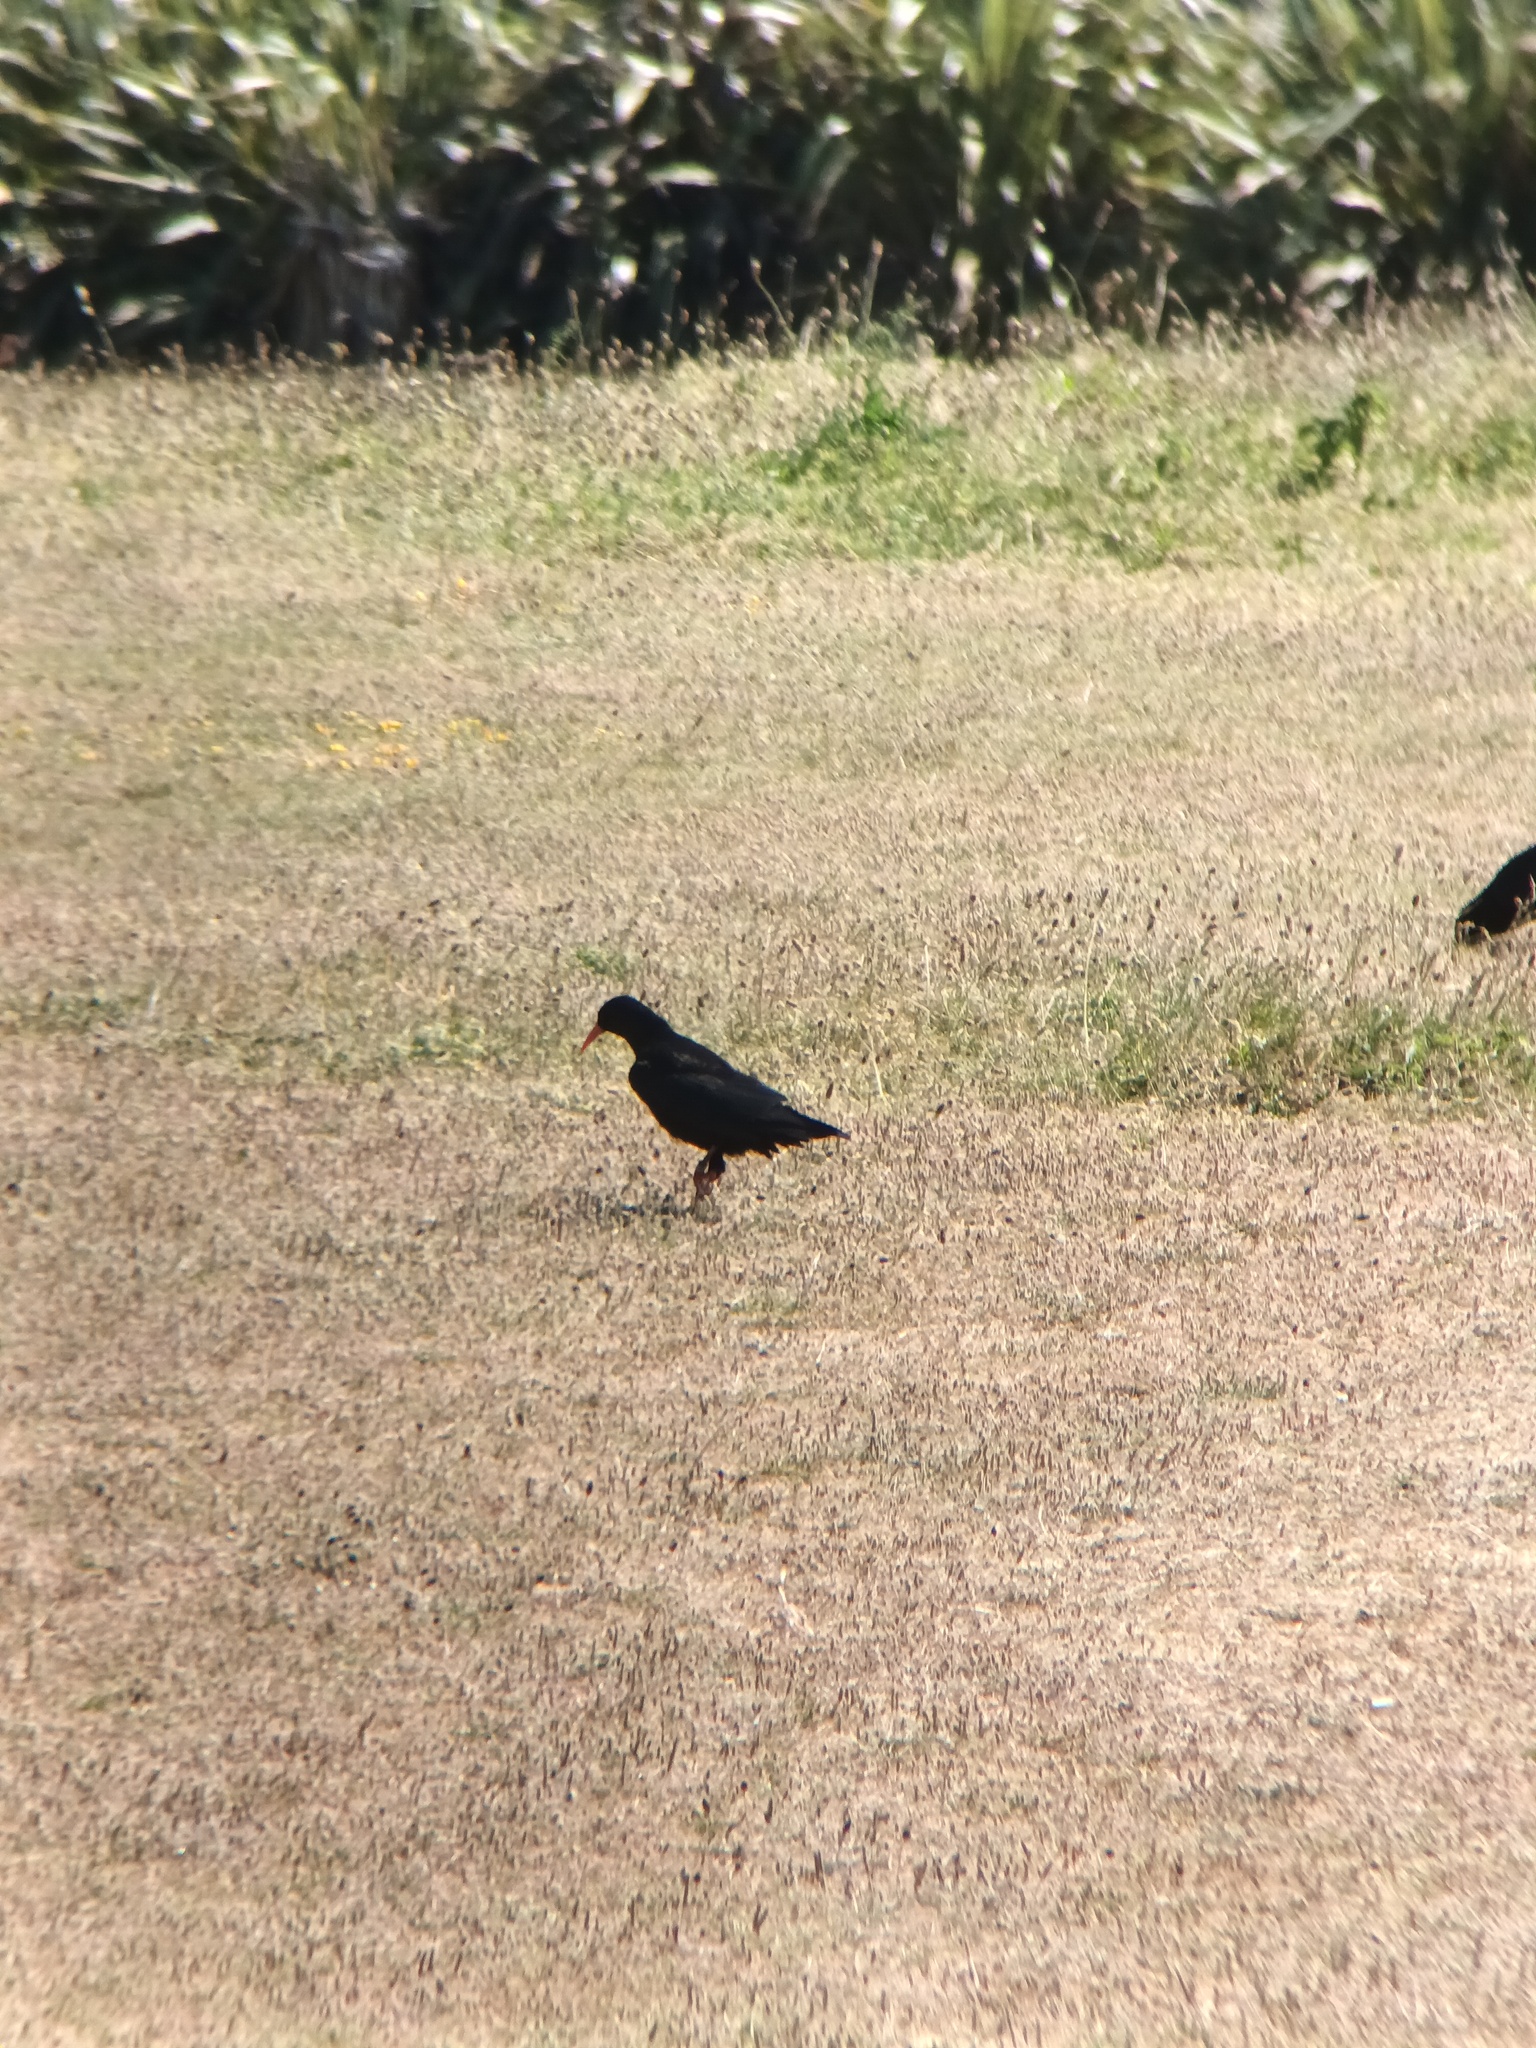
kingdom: Animalia
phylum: Chordata
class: Aves
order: Passeriformes
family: Corvidae
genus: Pyrrhocorax
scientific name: Pyrrhocorax pyrrhocorax
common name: Red-billed chough
